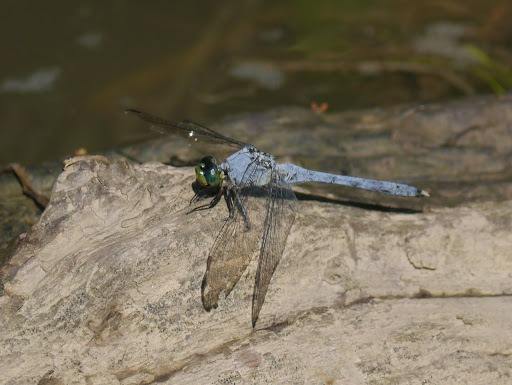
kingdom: Animalia
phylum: Arthropoda
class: Insecta
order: Odonata
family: Libellulidae
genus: Erythemis
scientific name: Erythemis simplicicollis
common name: Eastern pondhawk
